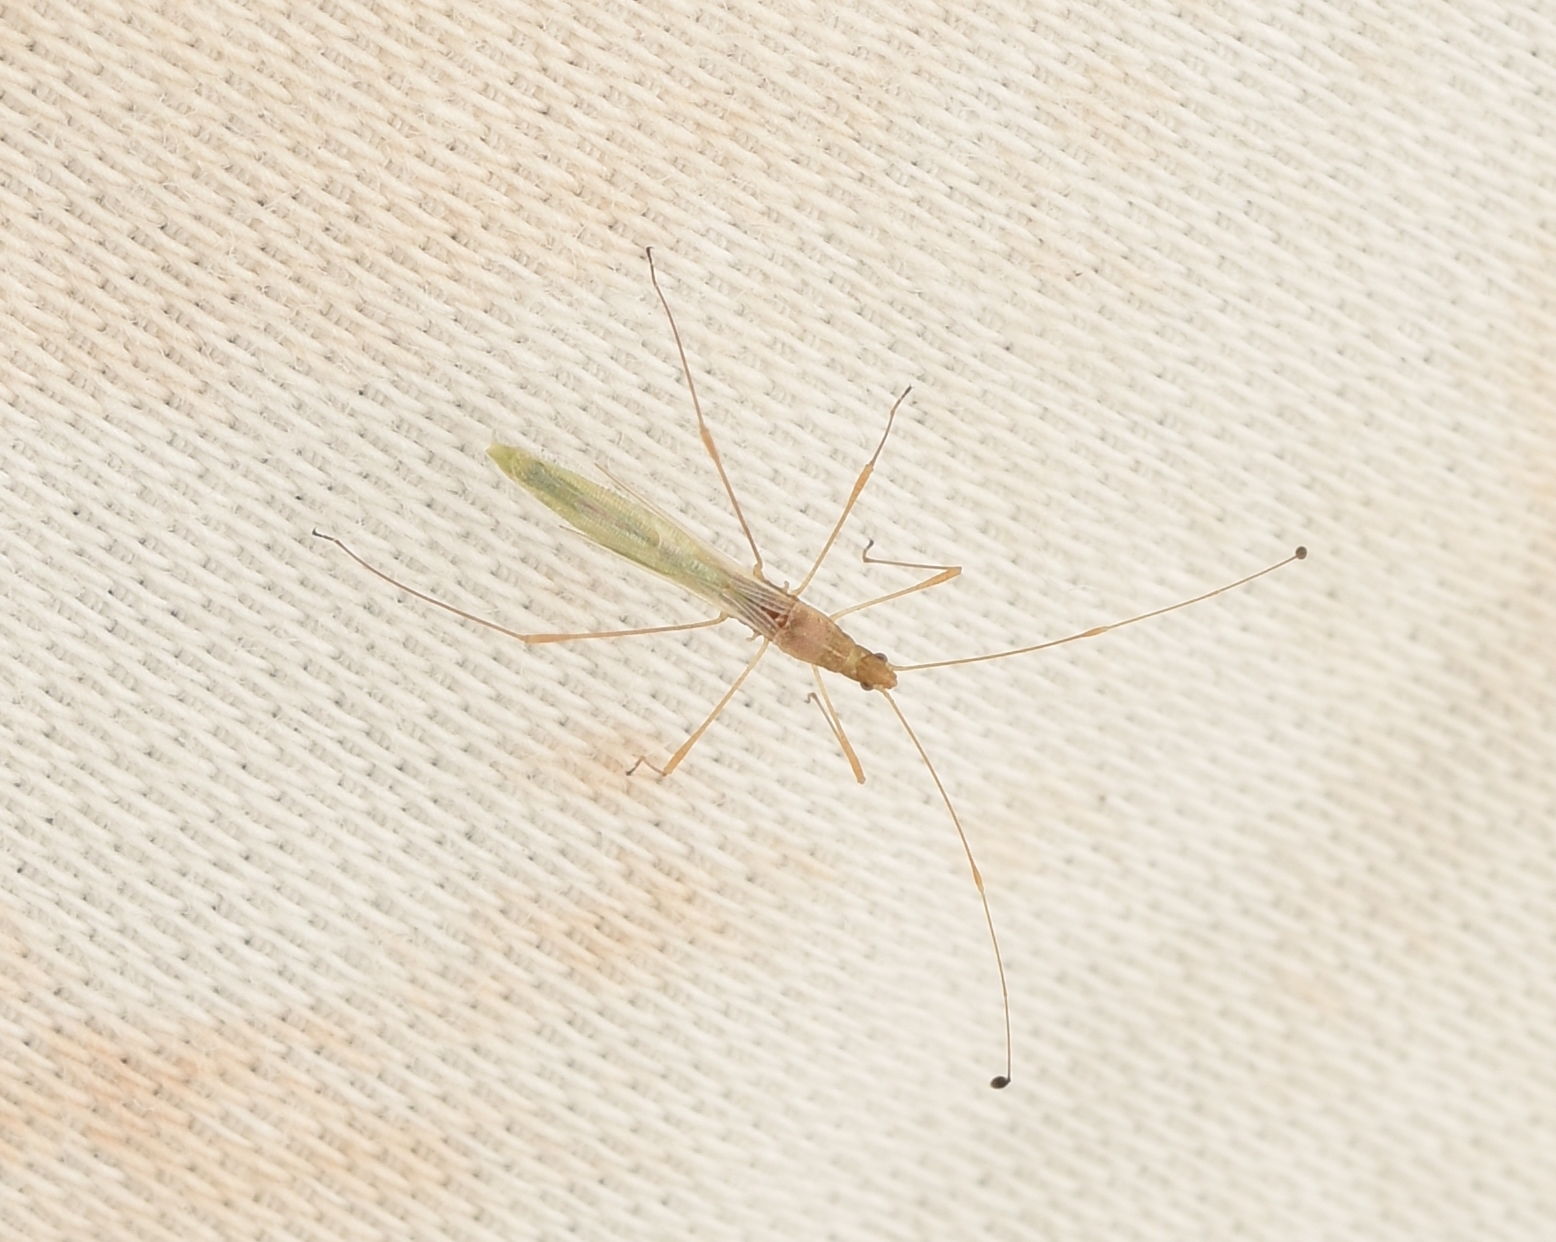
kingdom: Animalia
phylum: Arthropoda
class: Insecta
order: Hemiptera
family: Berytidae
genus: Metacanthus
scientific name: Metacanthus multispinus
